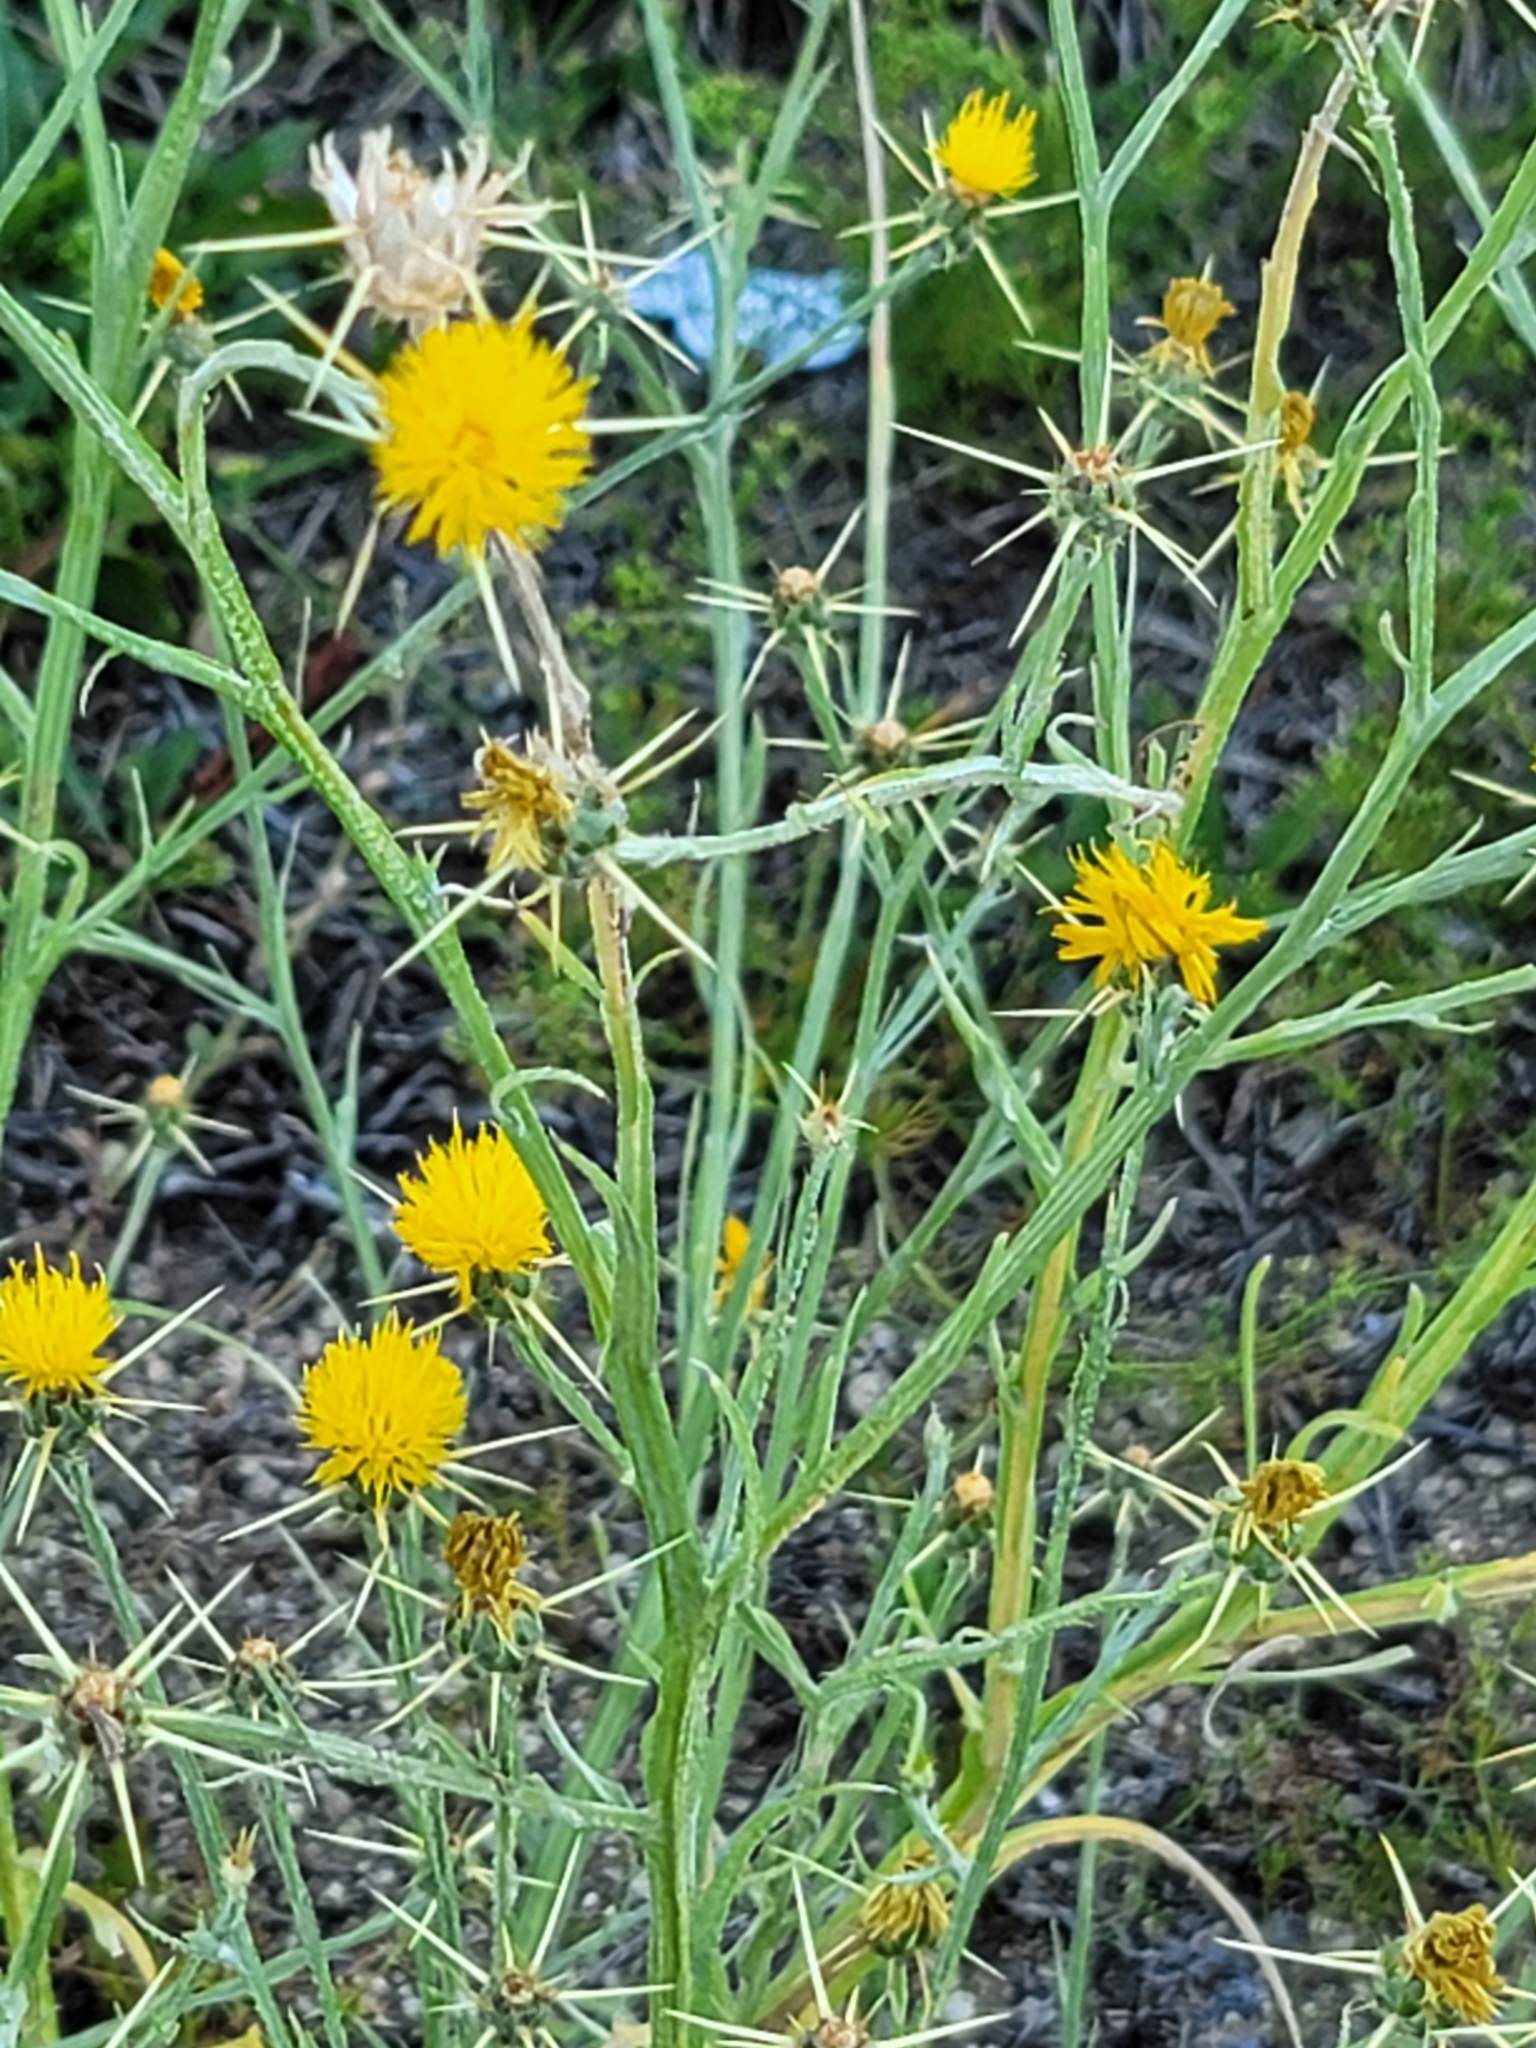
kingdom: Plantae
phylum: Tracheophyta
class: Magnoliopsida
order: Asterales
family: Asteraceae
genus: Centaurea
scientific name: Centaurea solstitialis
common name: Yellow star-thistle
